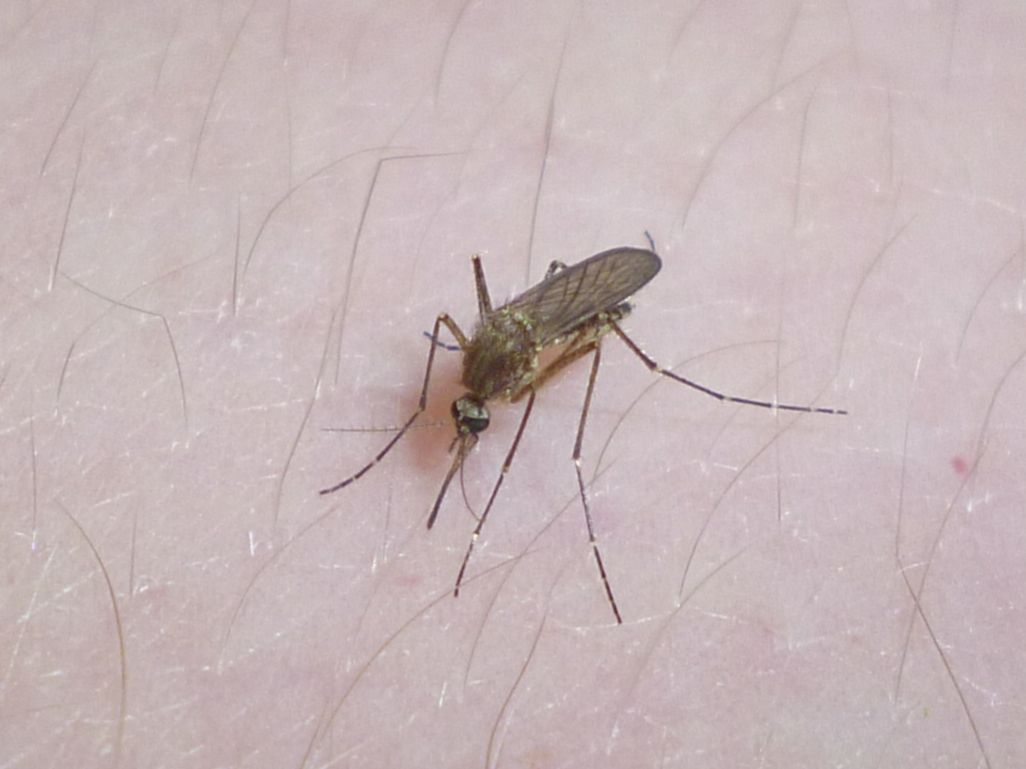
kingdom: Animalia
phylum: Arthropoda
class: Insecta
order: Diptera
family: Culicidae
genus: Aedes
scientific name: Aedes vexans
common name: Inland floodwater mosquito
